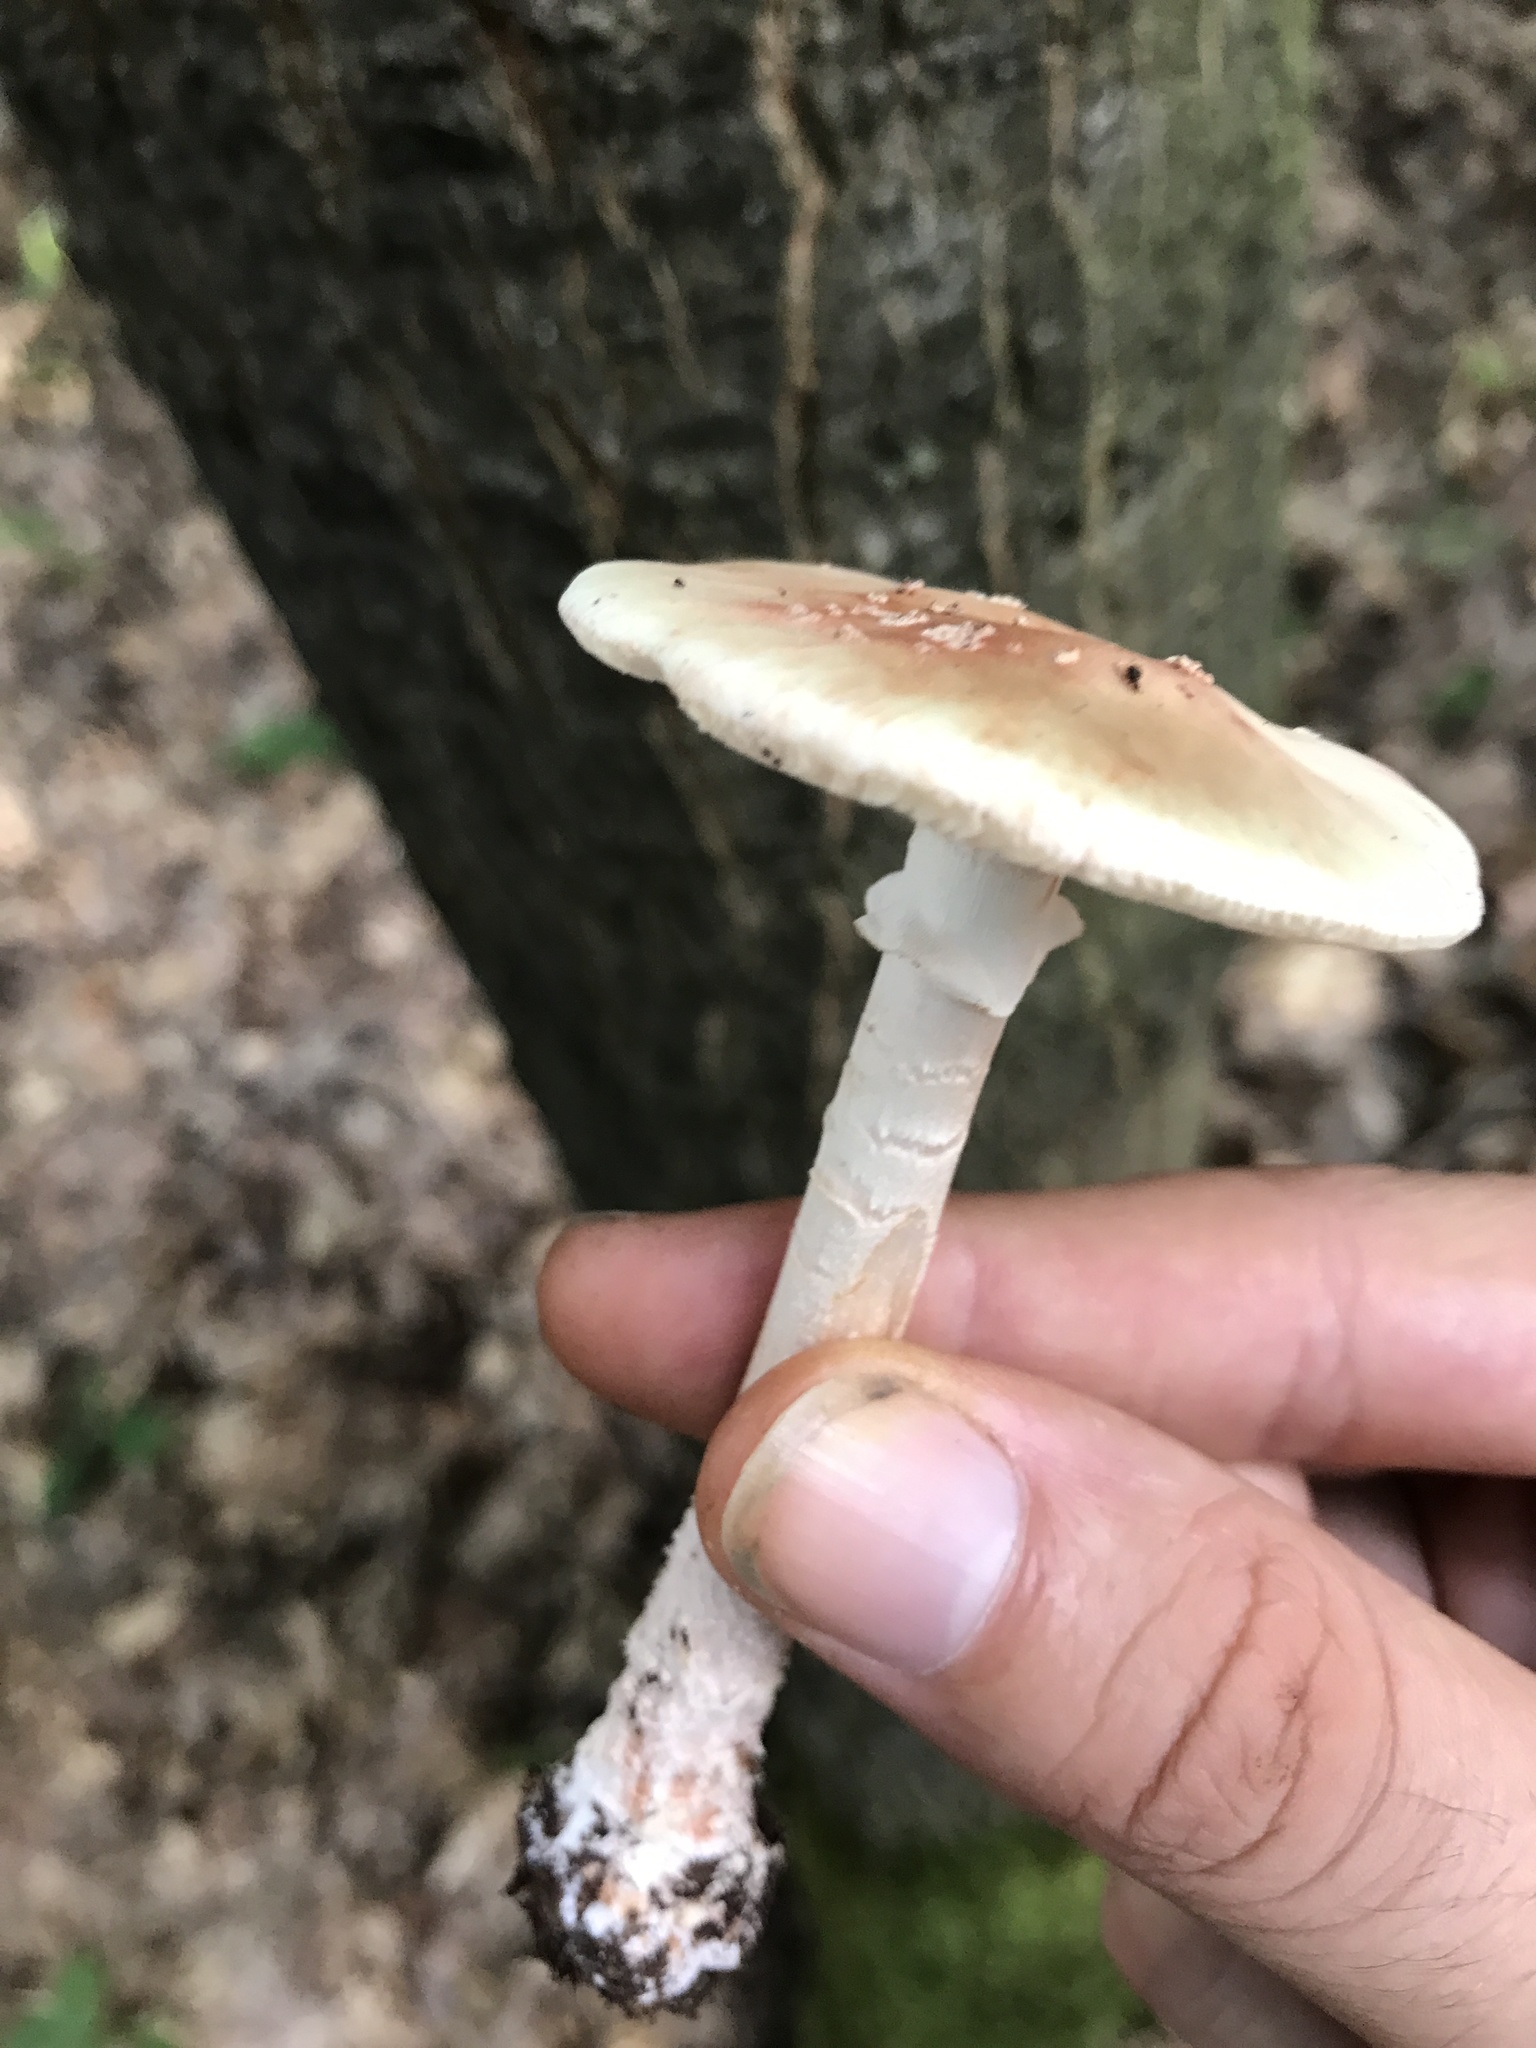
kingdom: Fungi
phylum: Basidiomycota
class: Agaricomycetes
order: Agaricales
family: Amanitaceae
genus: Amanita
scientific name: Amanita rubescens
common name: Blusher
